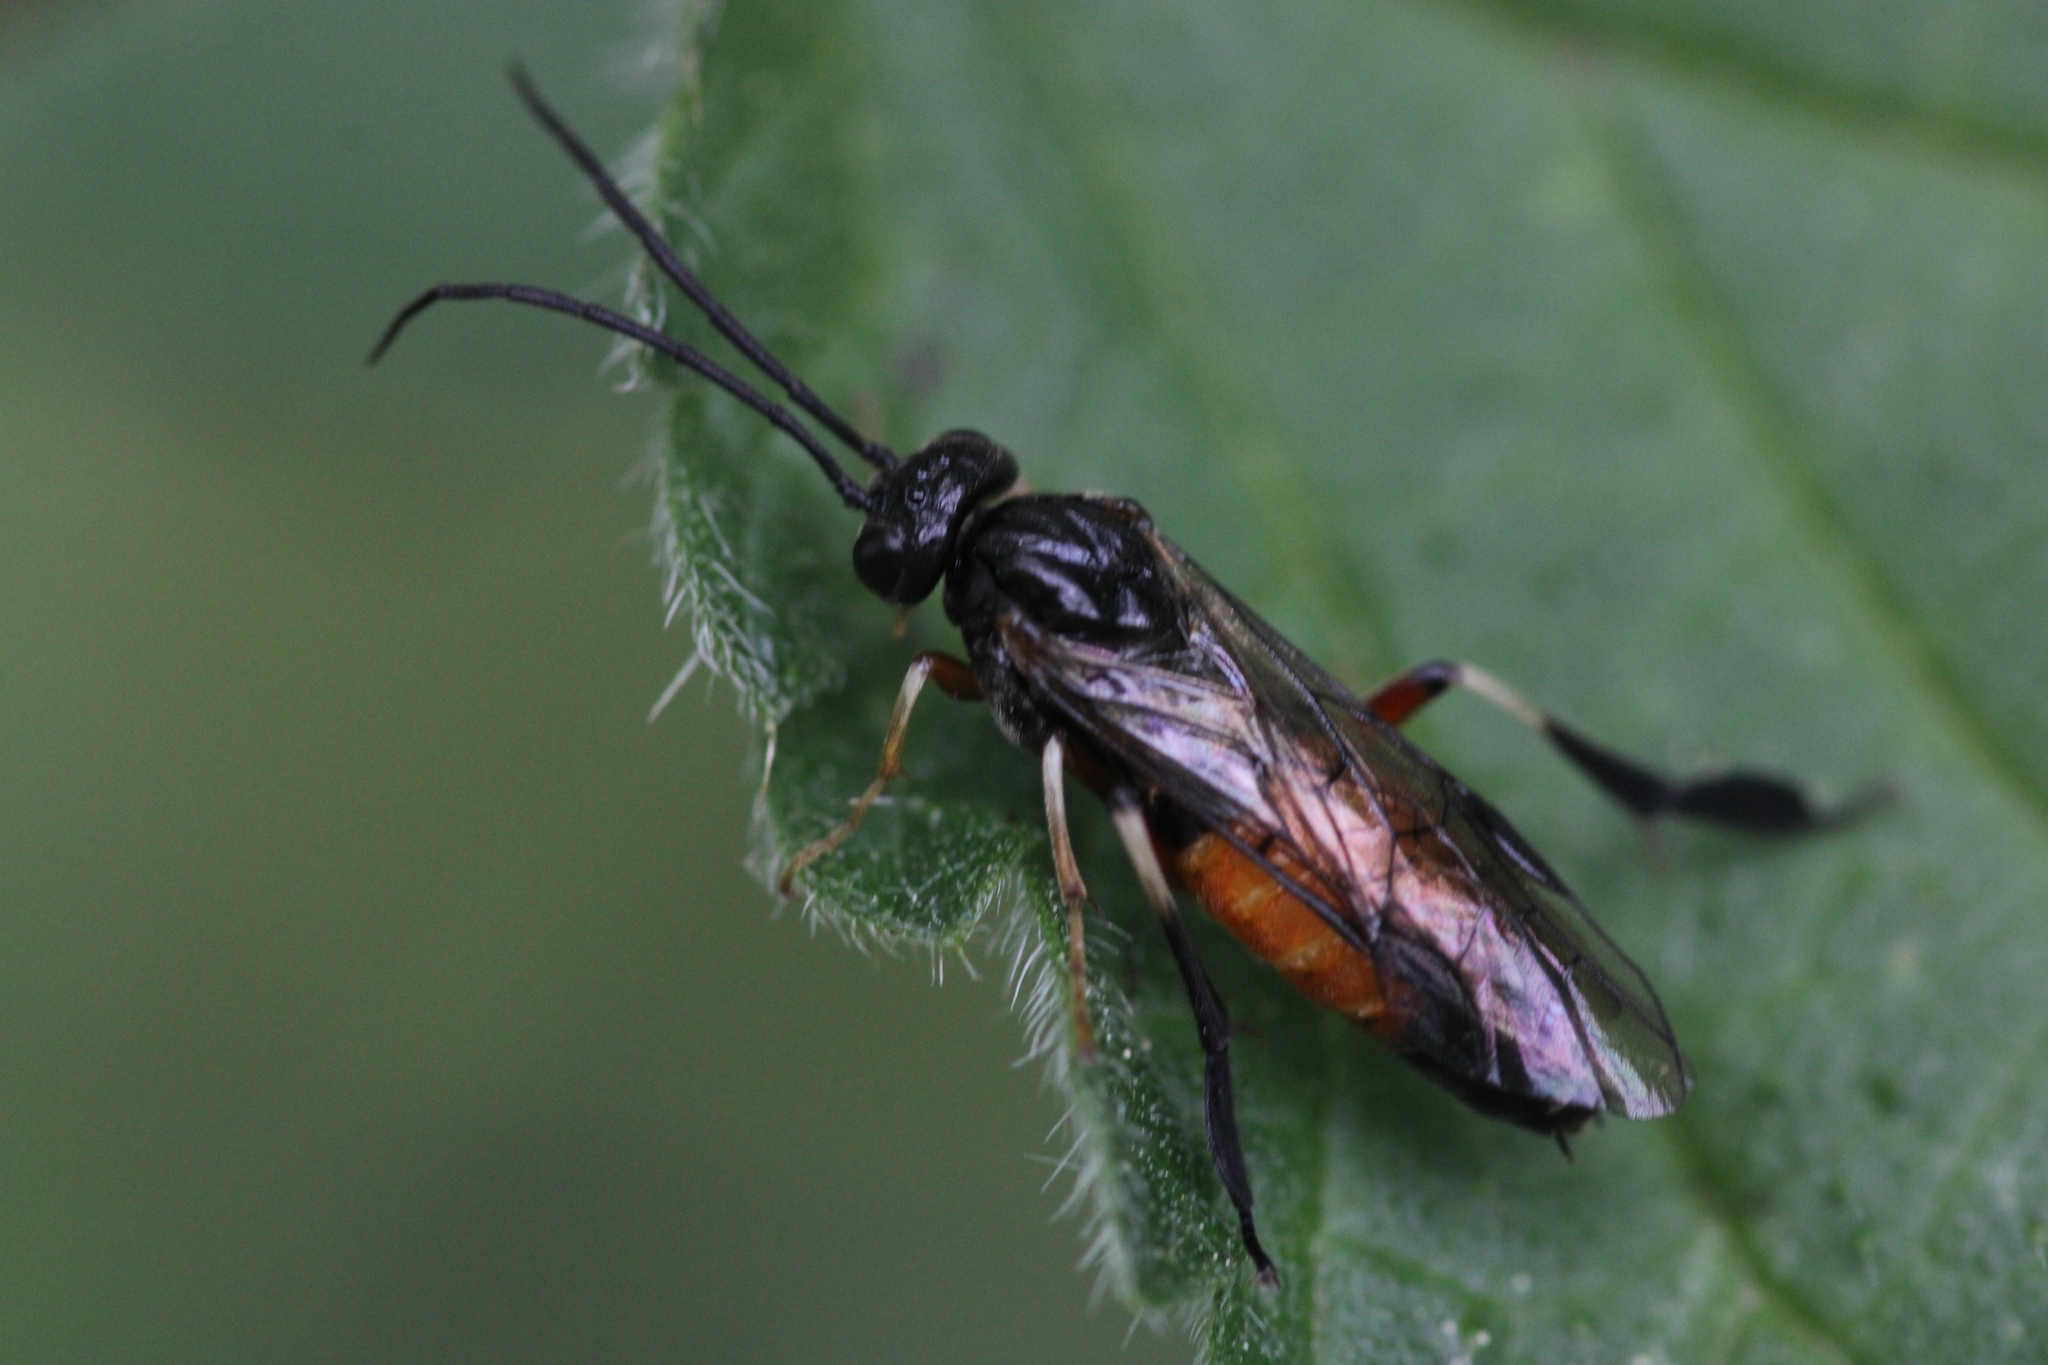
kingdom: Animalia
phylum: Arthropoda
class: Insecta
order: Hymenoptera
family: Tenthredinidae
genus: Craesus
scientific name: Craesus latipes
